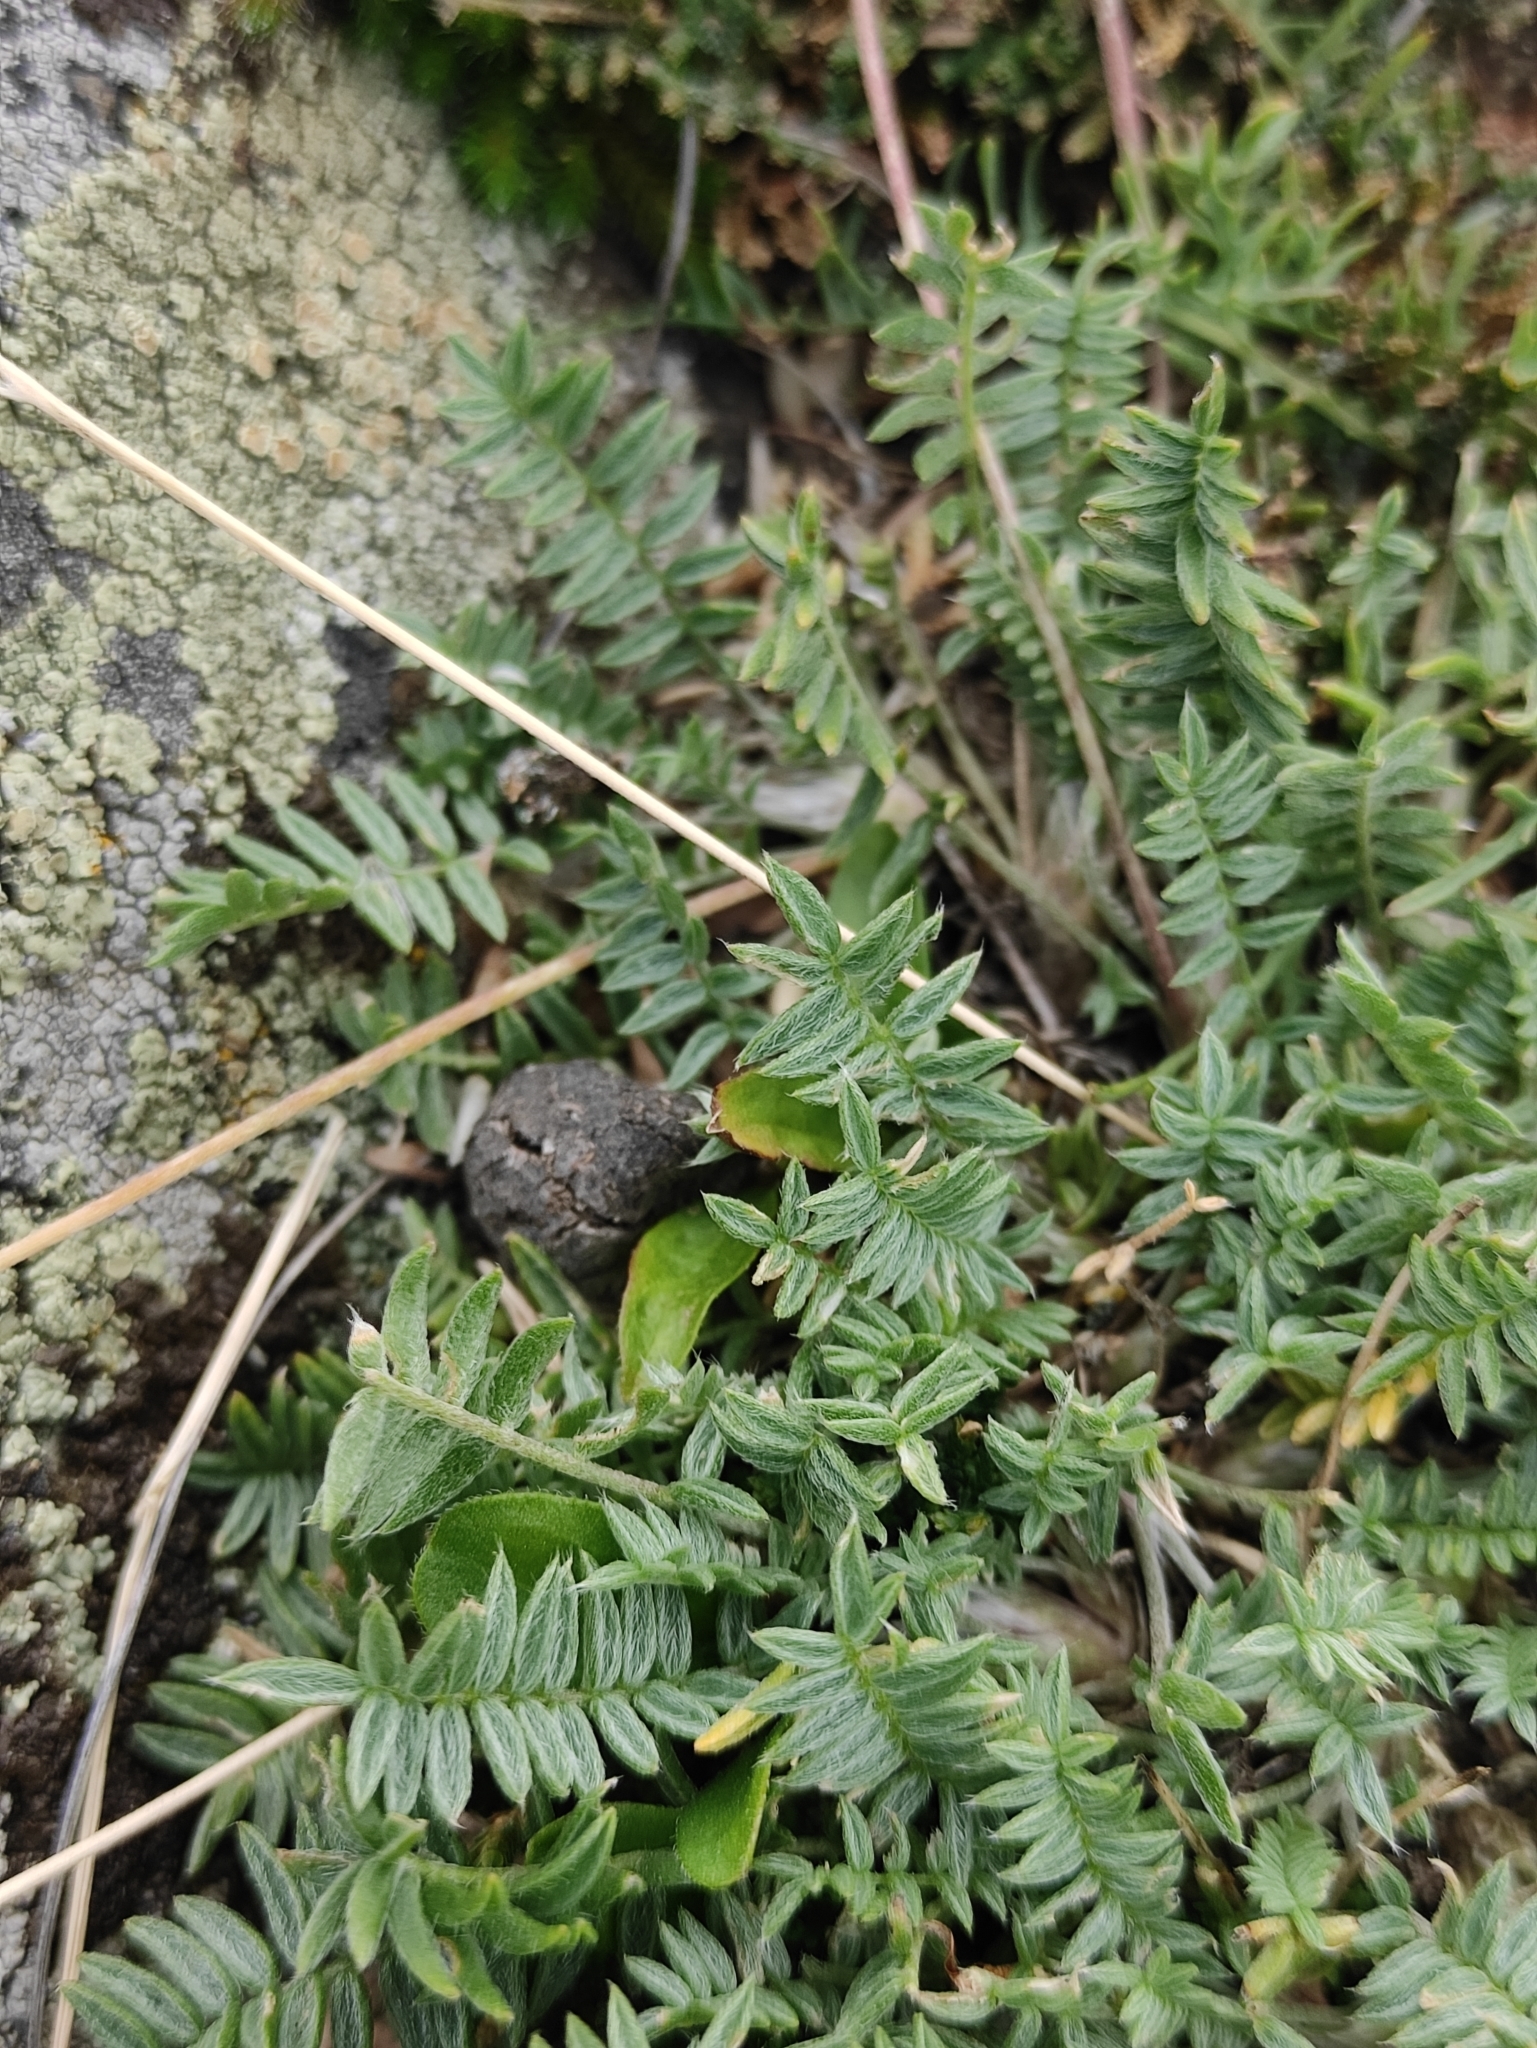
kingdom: Plantae
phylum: Tracheophyta
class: Magnoliopsida
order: Fabales
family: Fabaceae
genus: Oxytropis
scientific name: Oxytropis coerulea
